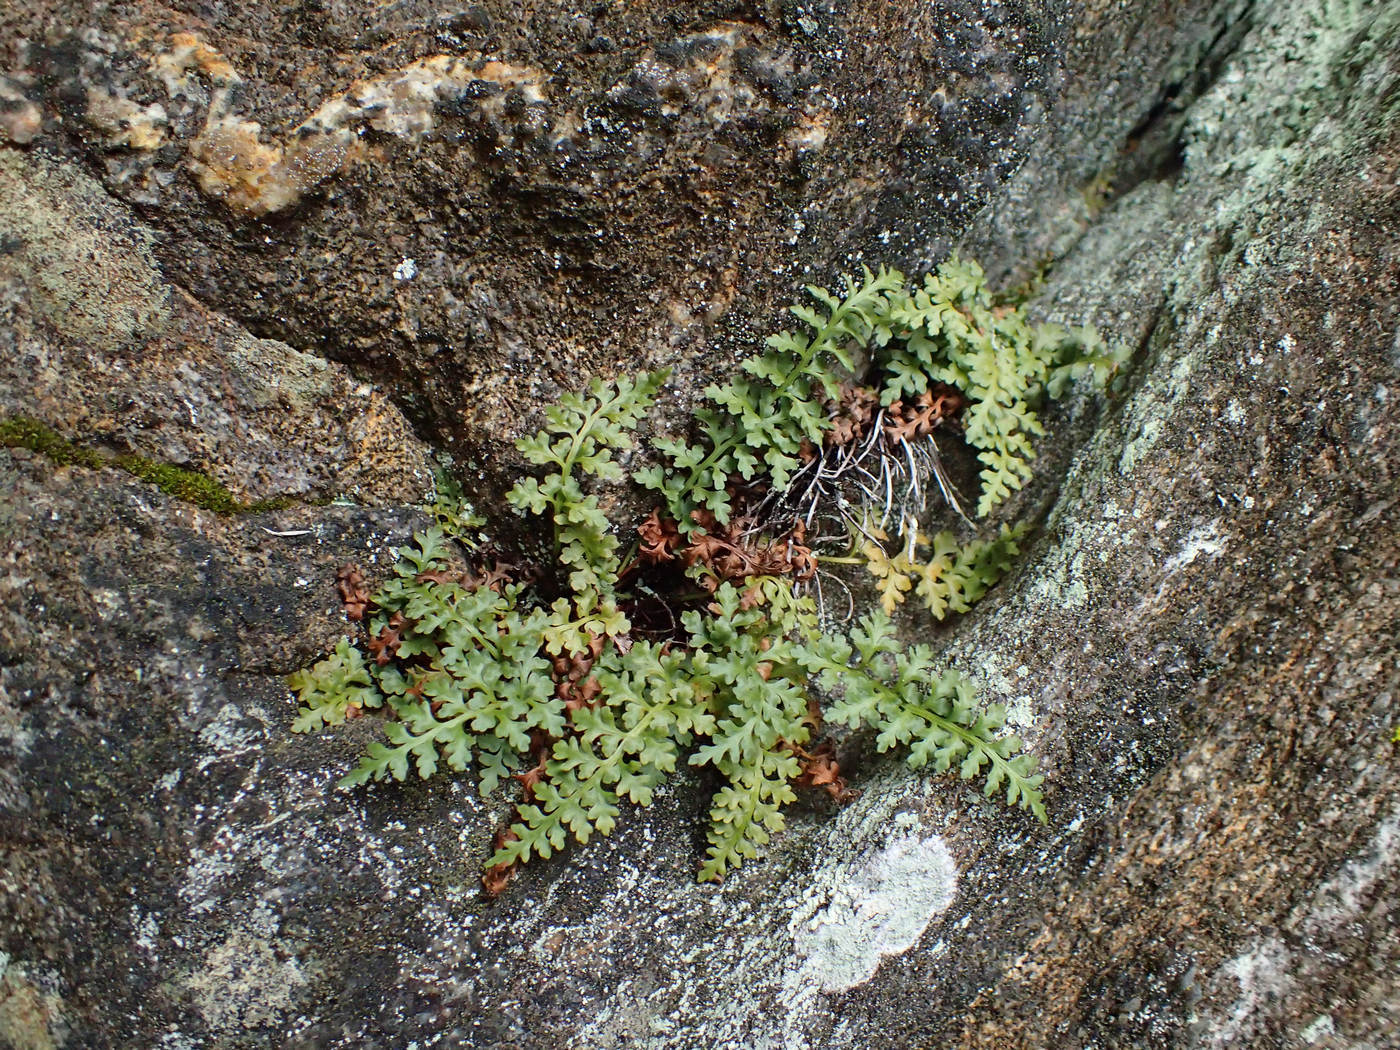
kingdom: Plantae
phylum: Tracheophyta
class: Polypodiopsida
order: Polypodiales
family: Aspleniaceae
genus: Asplenium
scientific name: Asplenium montanum
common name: Mountain spleenwort
